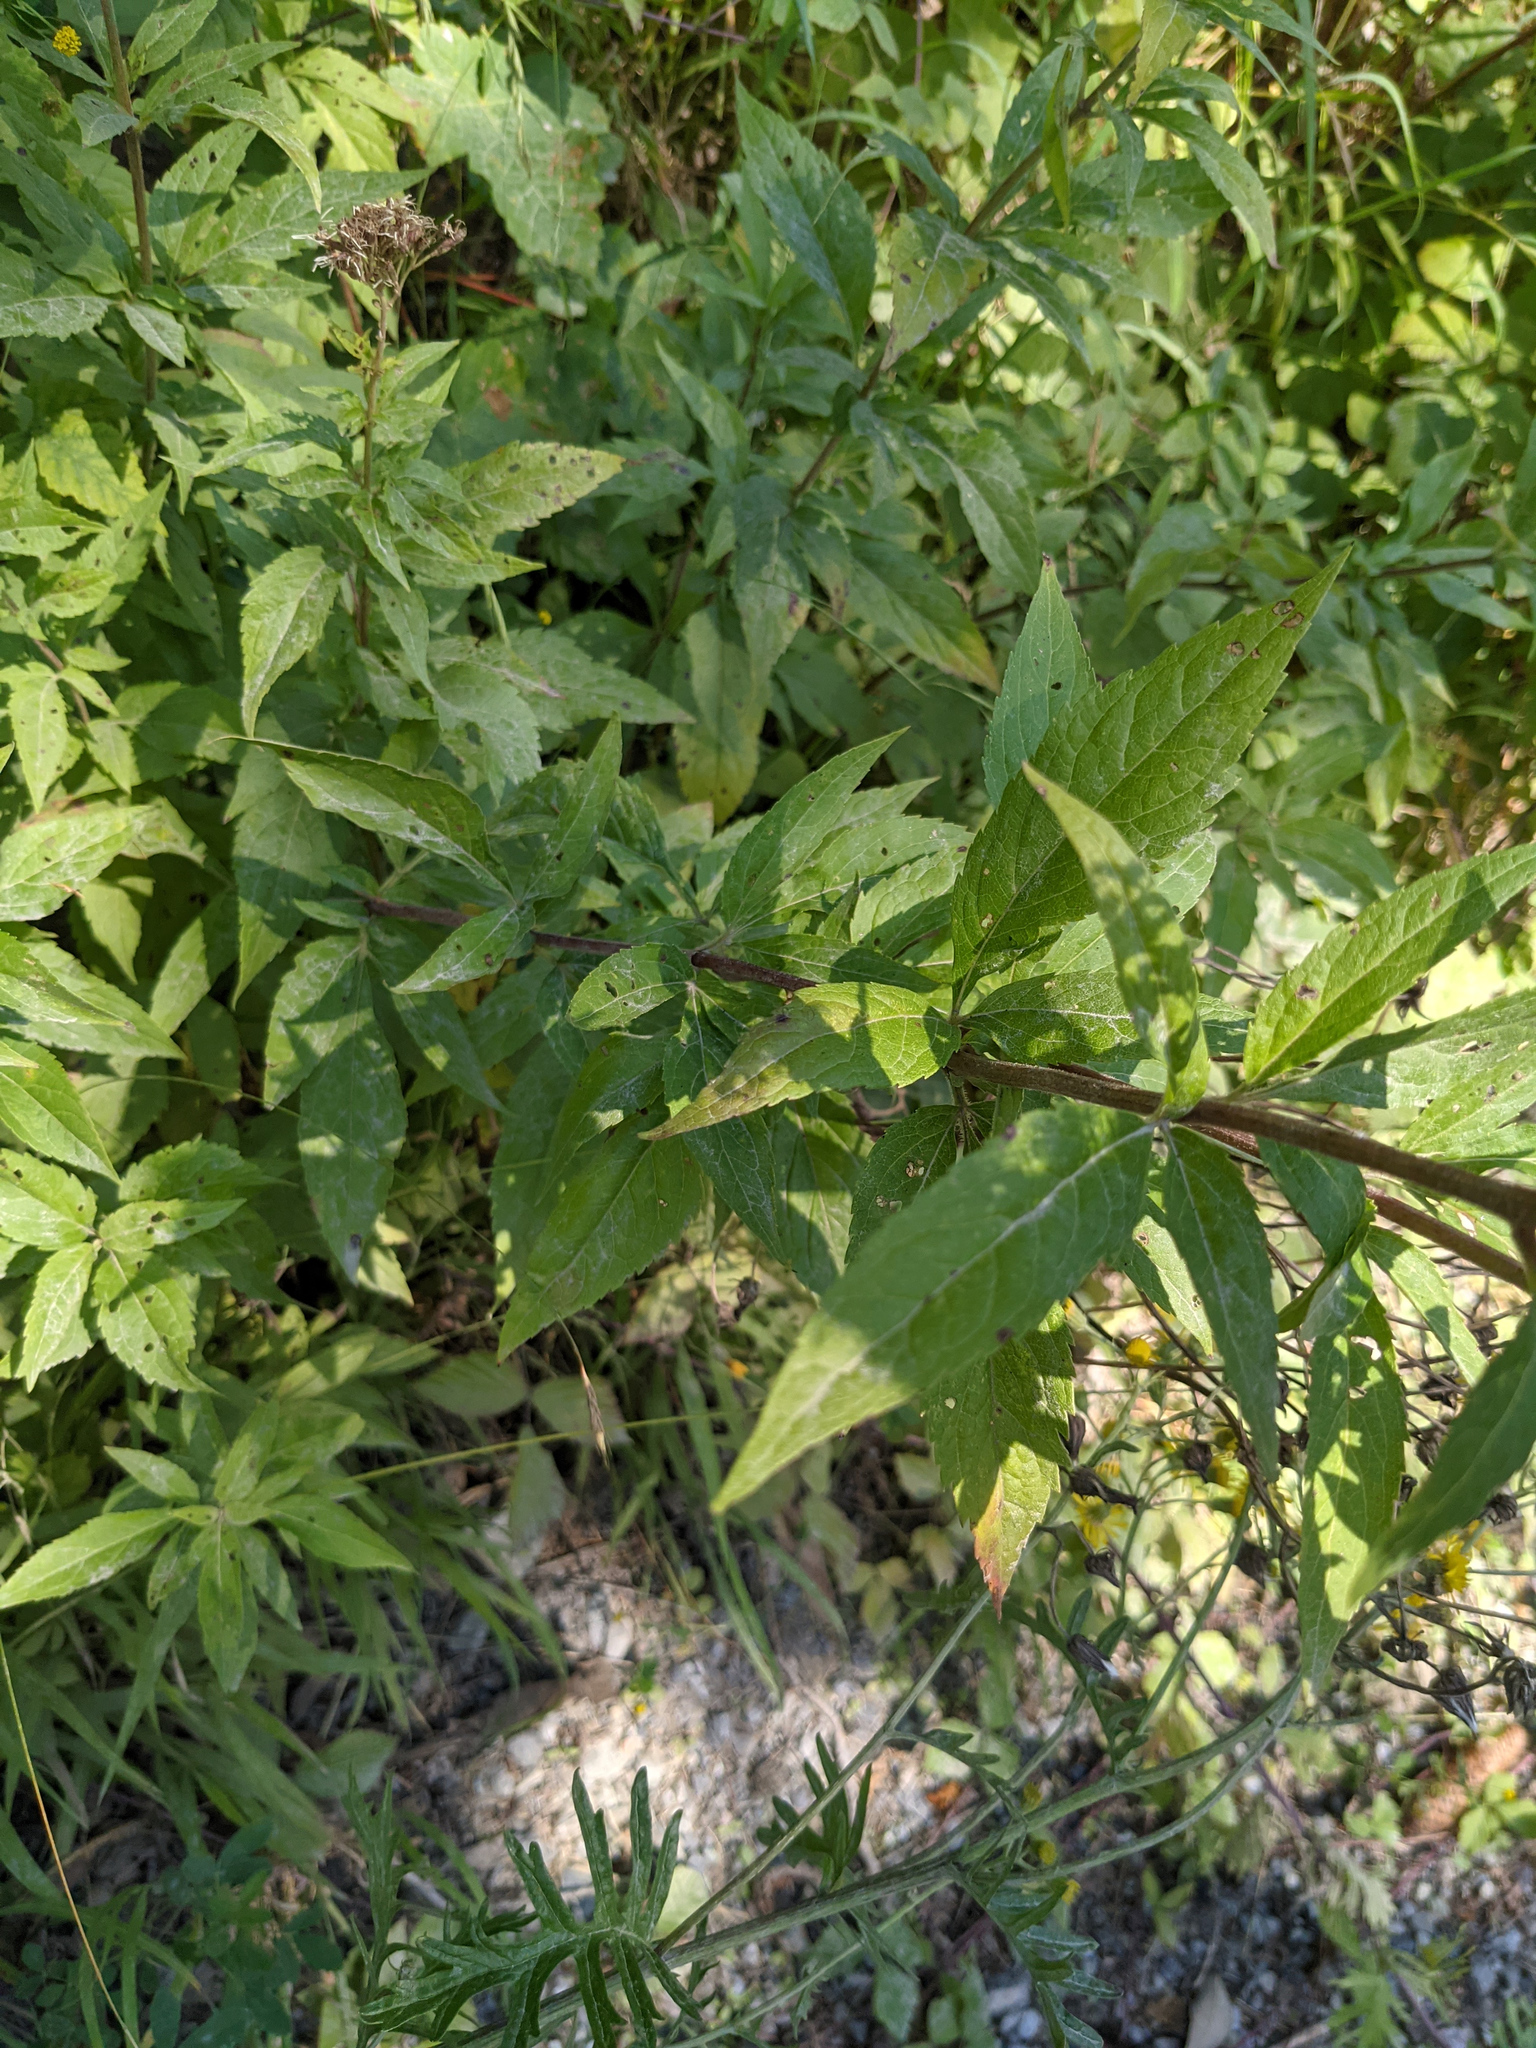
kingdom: Plantae
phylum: Tracheophyta
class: Magnoliopsida
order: Asterales
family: Asteraceae
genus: Eupatorium
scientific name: Eupatorium cannabinum
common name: Hemp-agrimony
